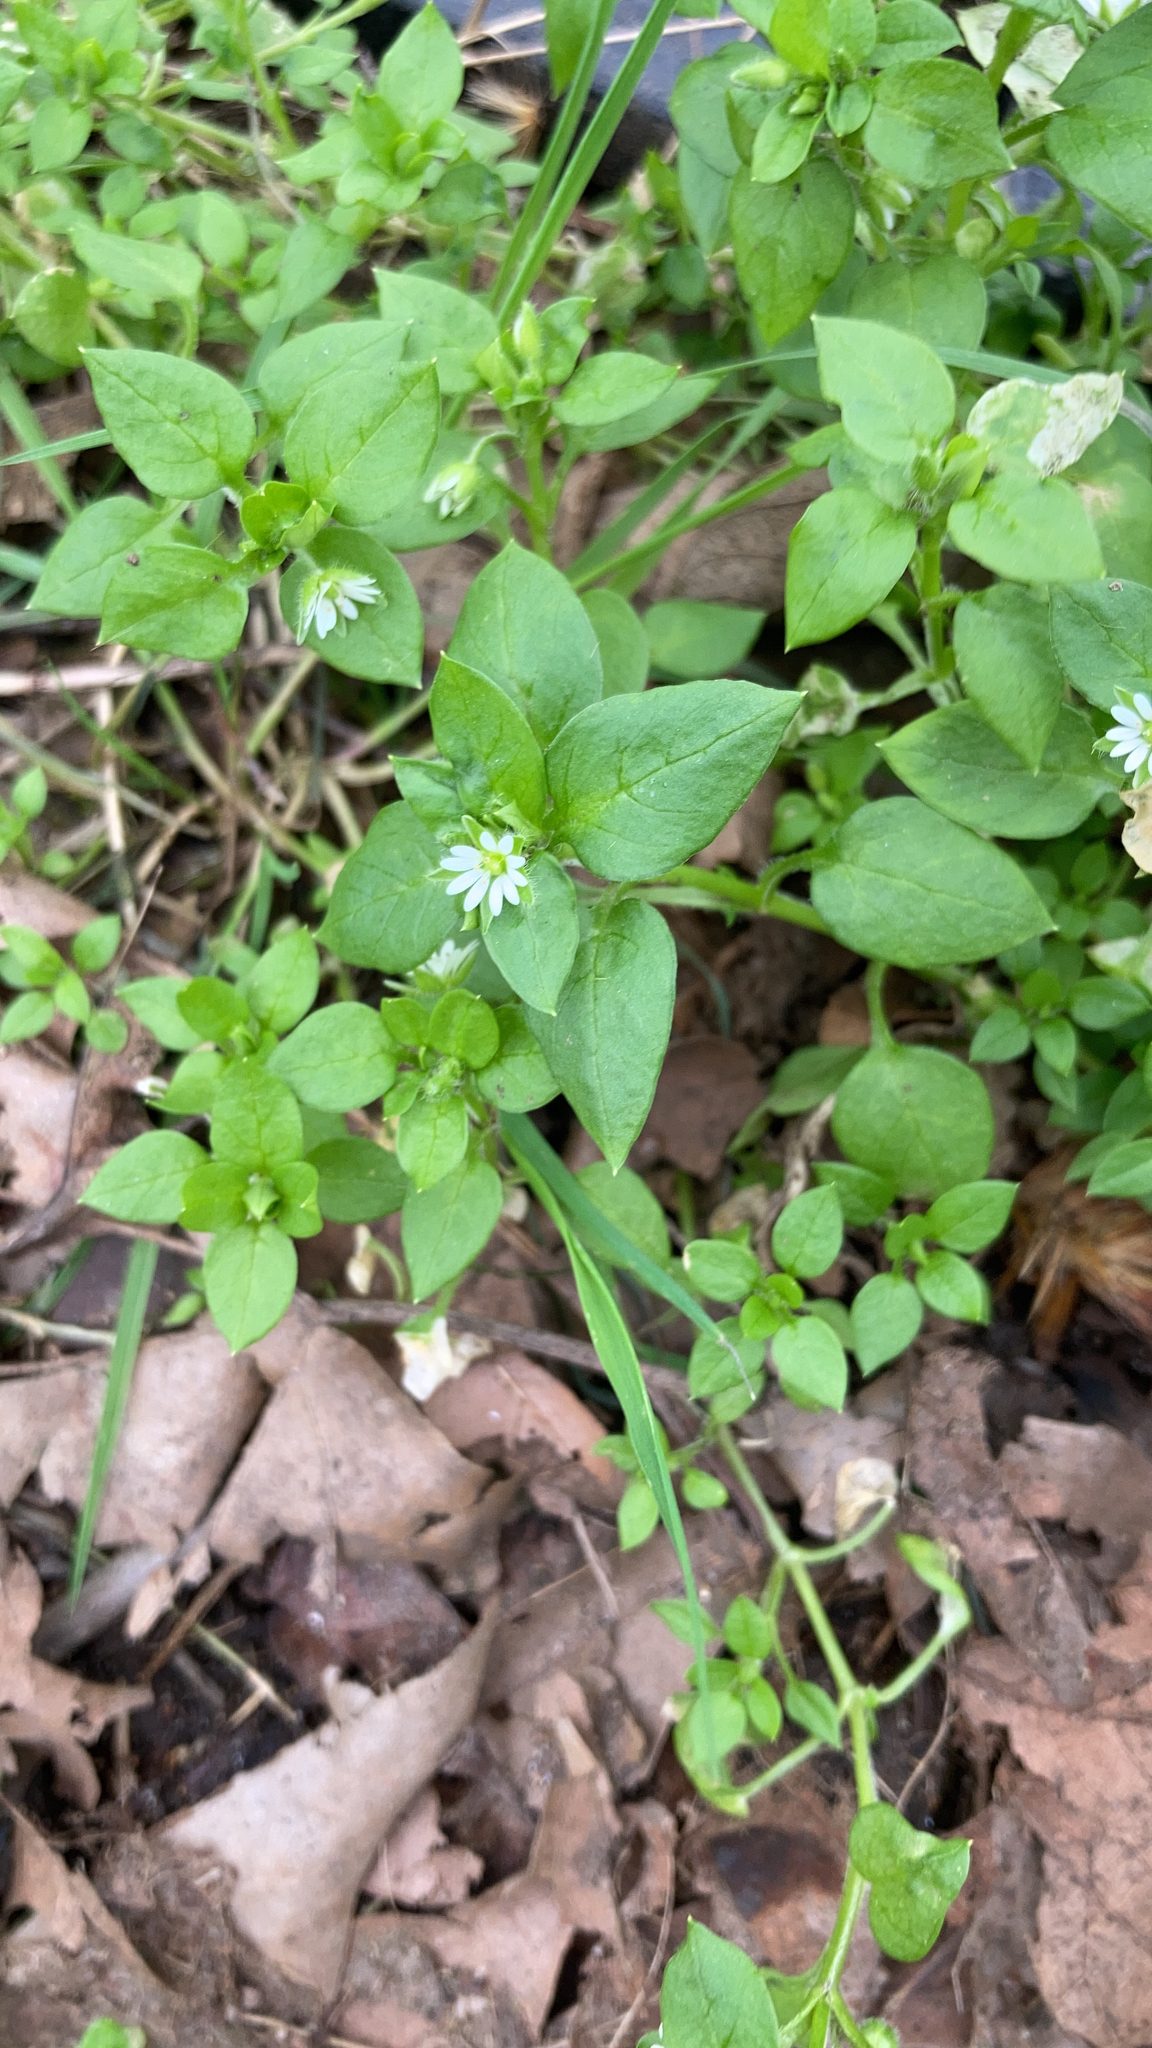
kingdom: Plantae
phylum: Tracheophyta
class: Magnoliopsida
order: Caryophyllales
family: Caryophyllaceae
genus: Stellaria
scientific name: Stellaria media
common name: Common chickweed
